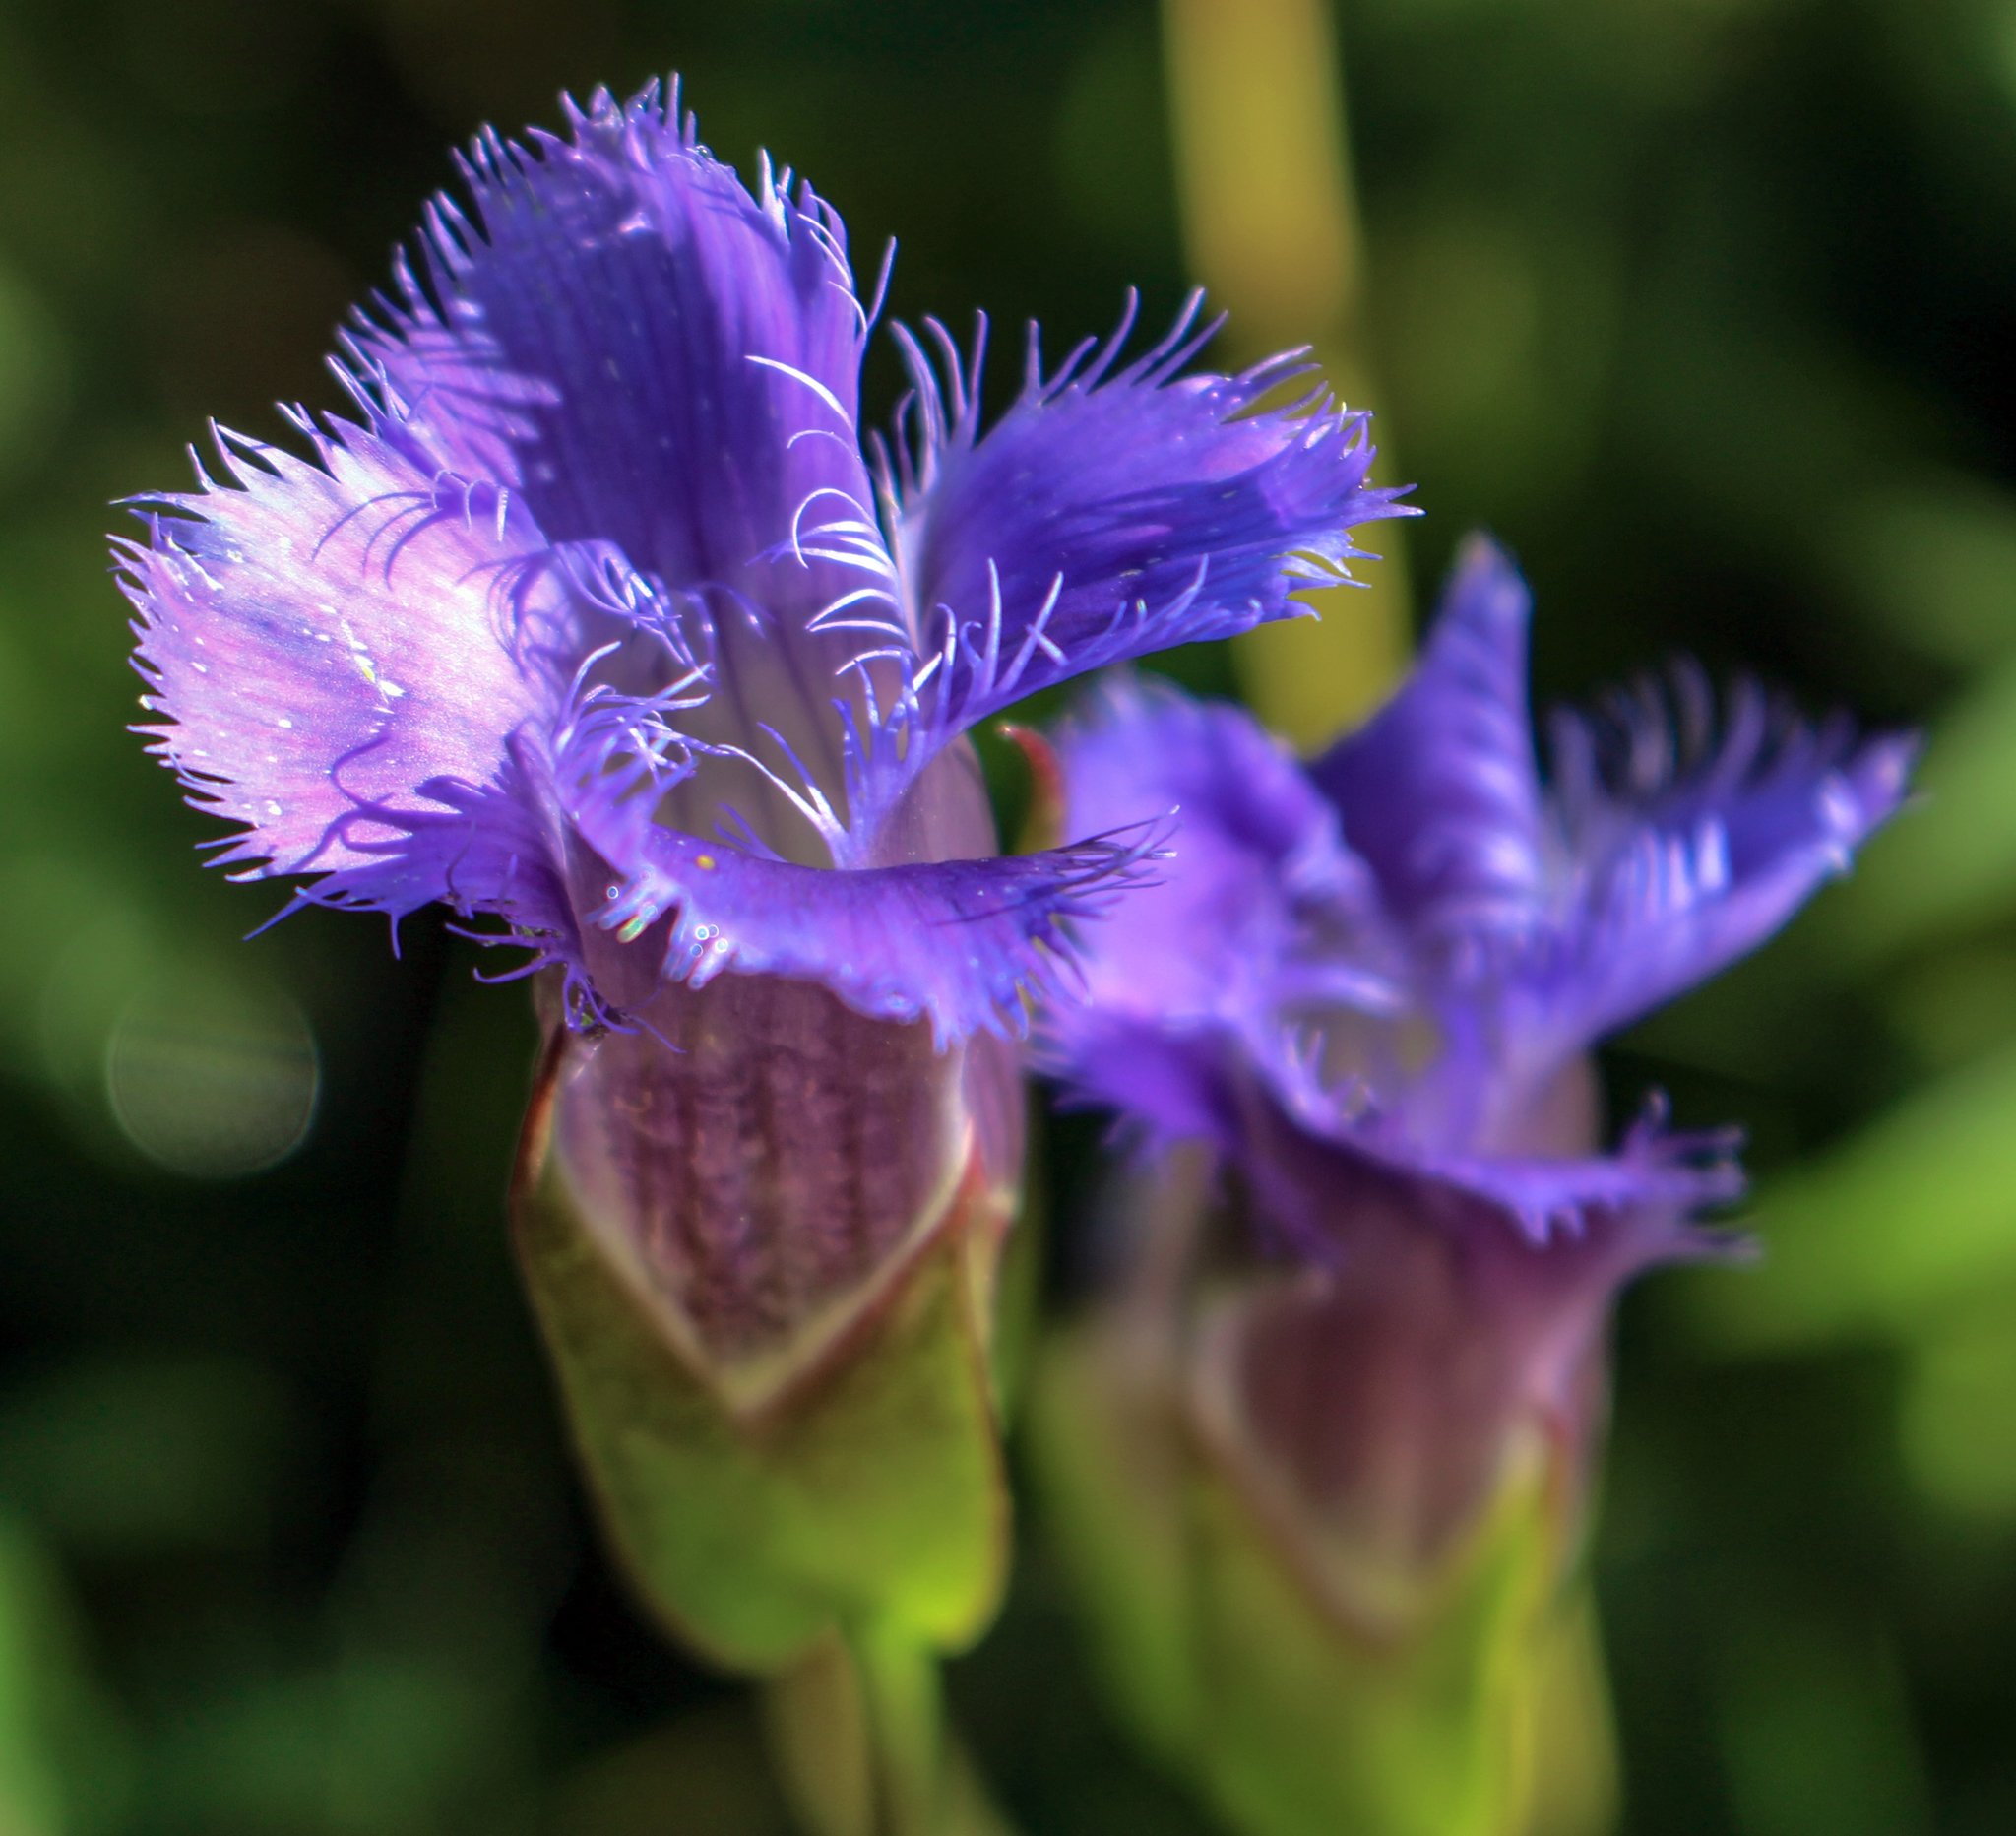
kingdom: Plantae
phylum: Tracheophyta
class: Magnoliopsida
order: Gentianales
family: Gentianaceae
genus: Gentianopsis
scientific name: Gentianopsis crinita
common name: Fringed-gentian
